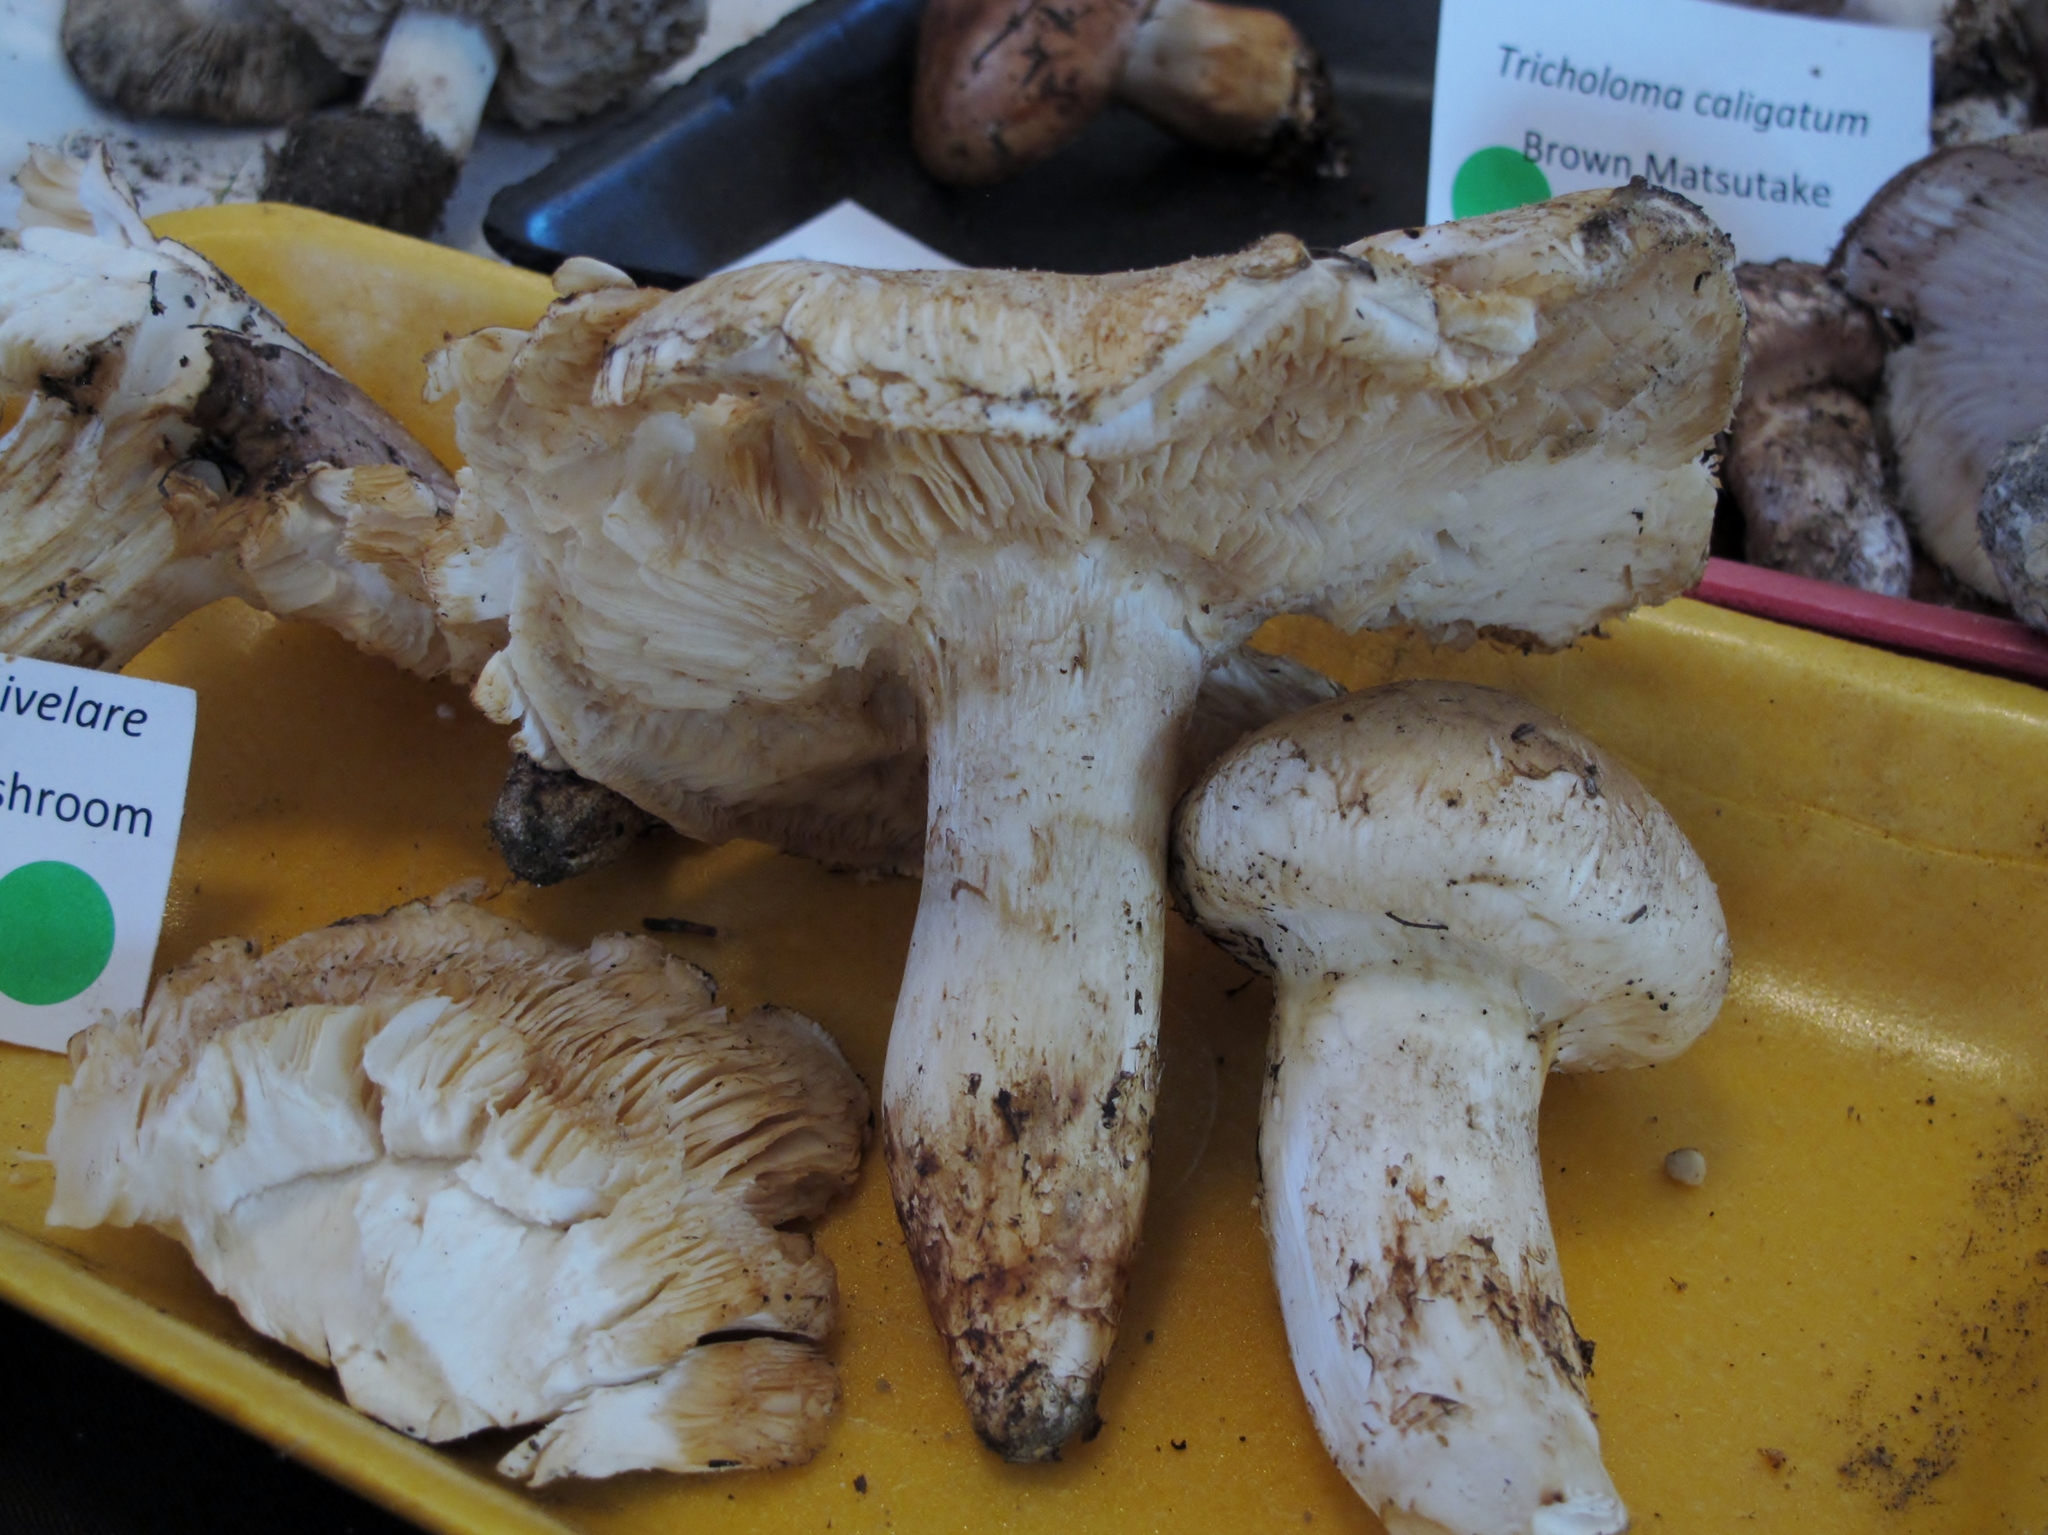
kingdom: Fungi
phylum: Basidiomycota
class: Agaricomycetes
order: Agaricales
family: Tricholomataceae
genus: Tricholoma
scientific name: Tricholoma magnivelare
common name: American matsutake
